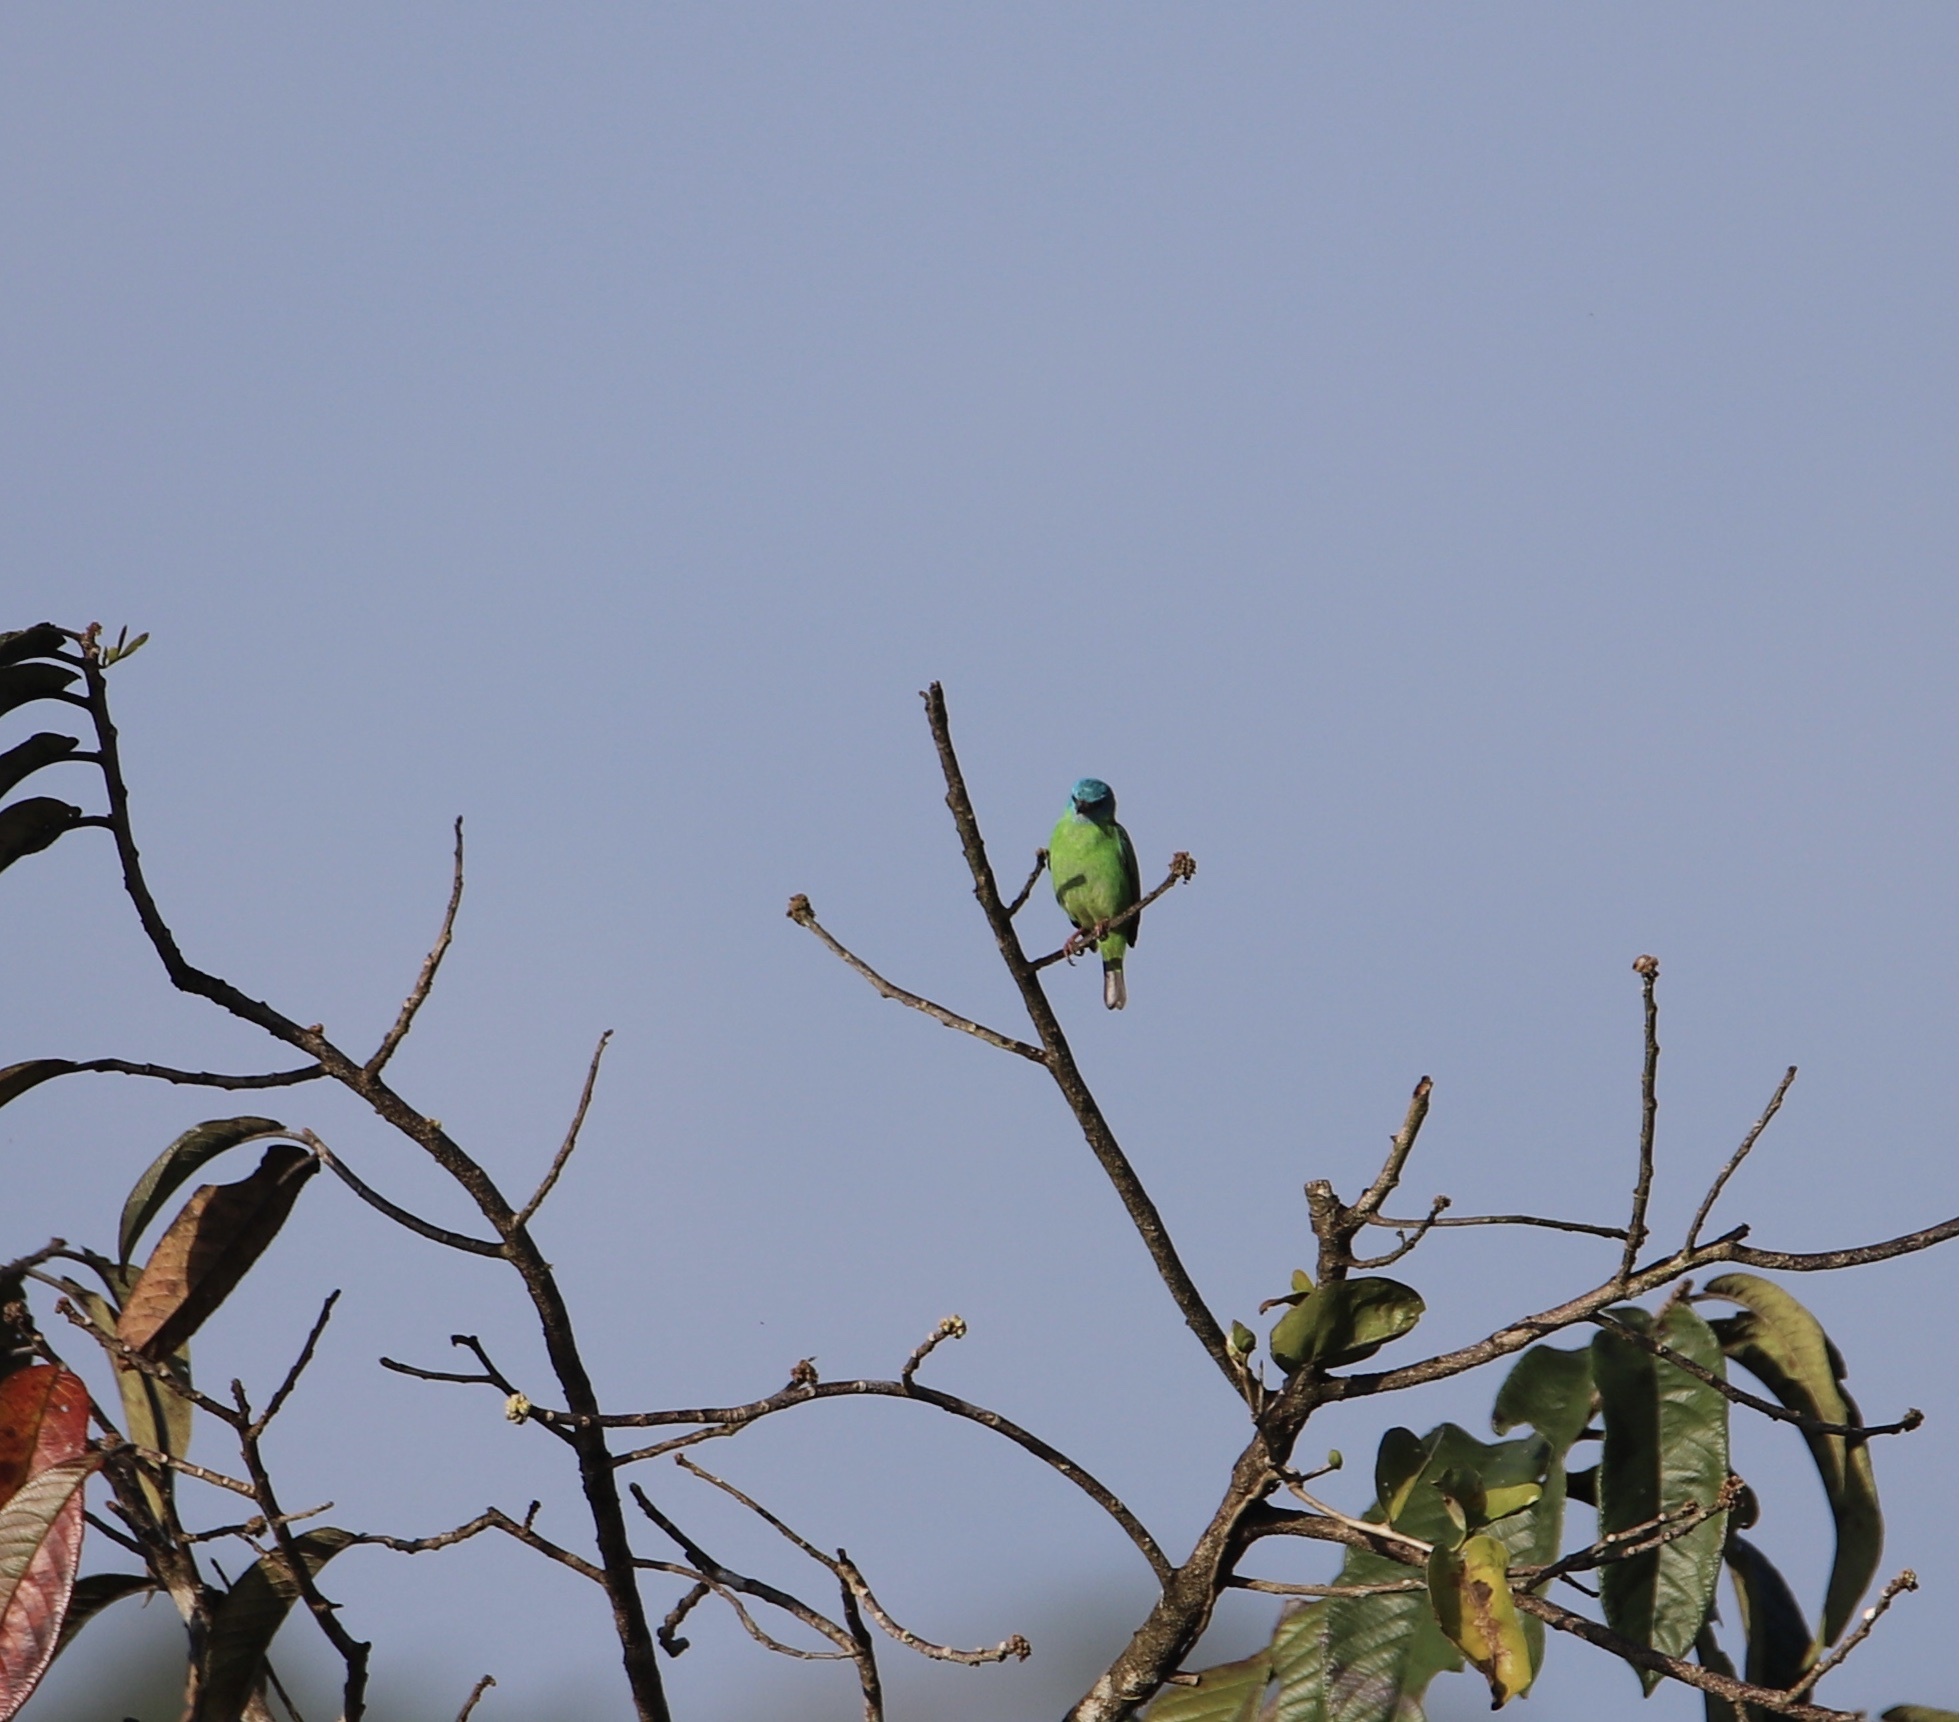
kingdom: Animalia
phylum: Chordata
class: Aves
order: Passeriformes
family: Thraupidae
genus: Dacnis
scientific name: Dacnis cayana
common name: Blue dacnis
